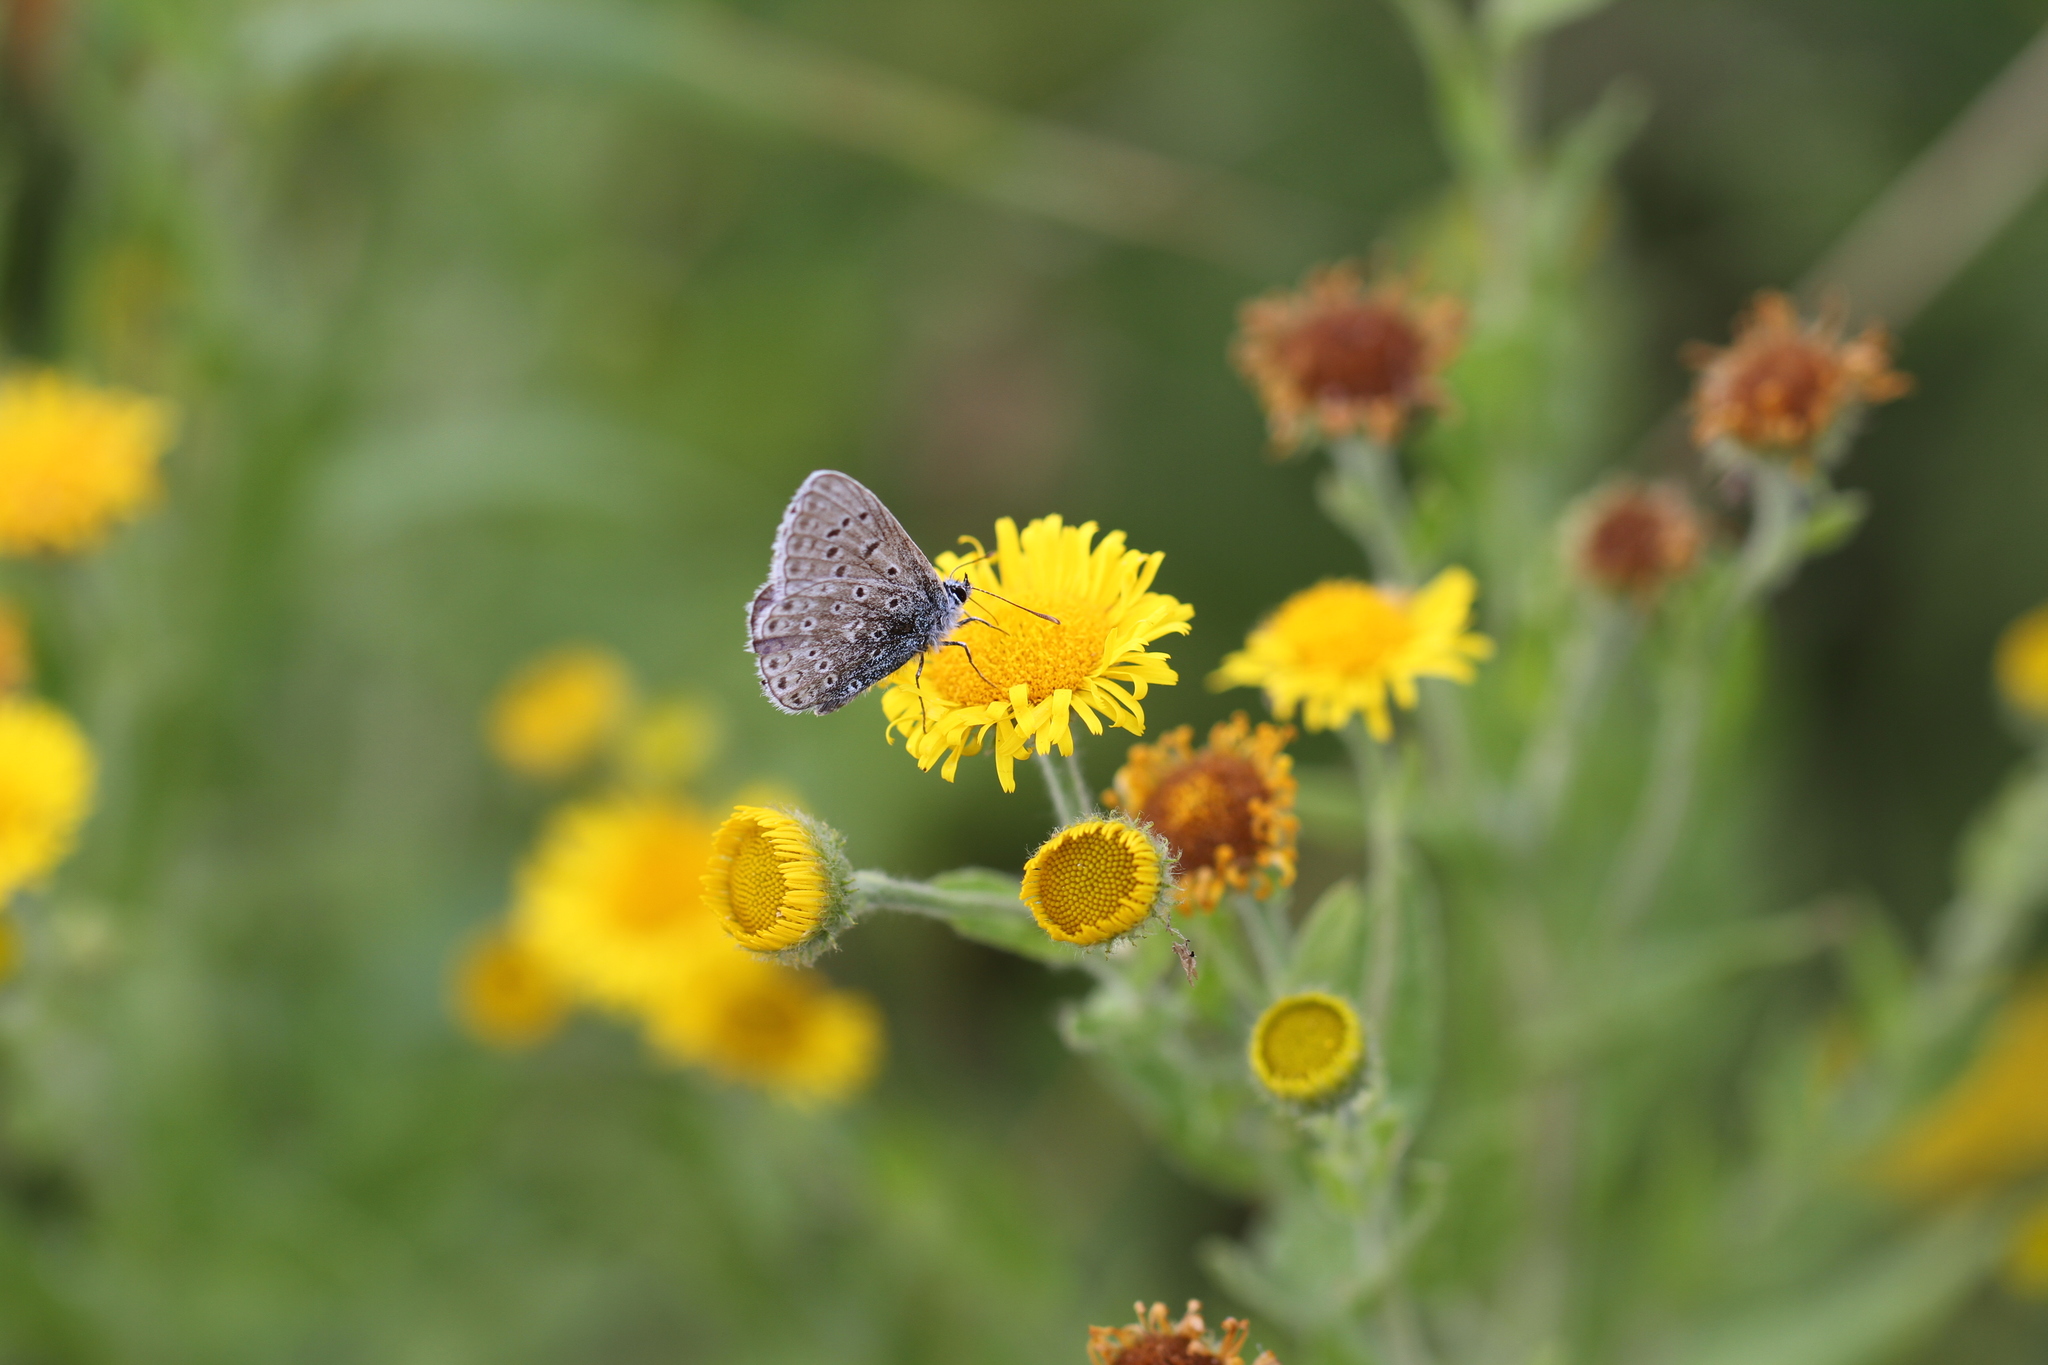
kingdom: Animalia
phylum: Arthropoda
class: Insecta
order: Lepidoptera
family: Lycaenidae
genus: Polyommatus
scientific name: Polyommatus icarus
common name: Common blue
